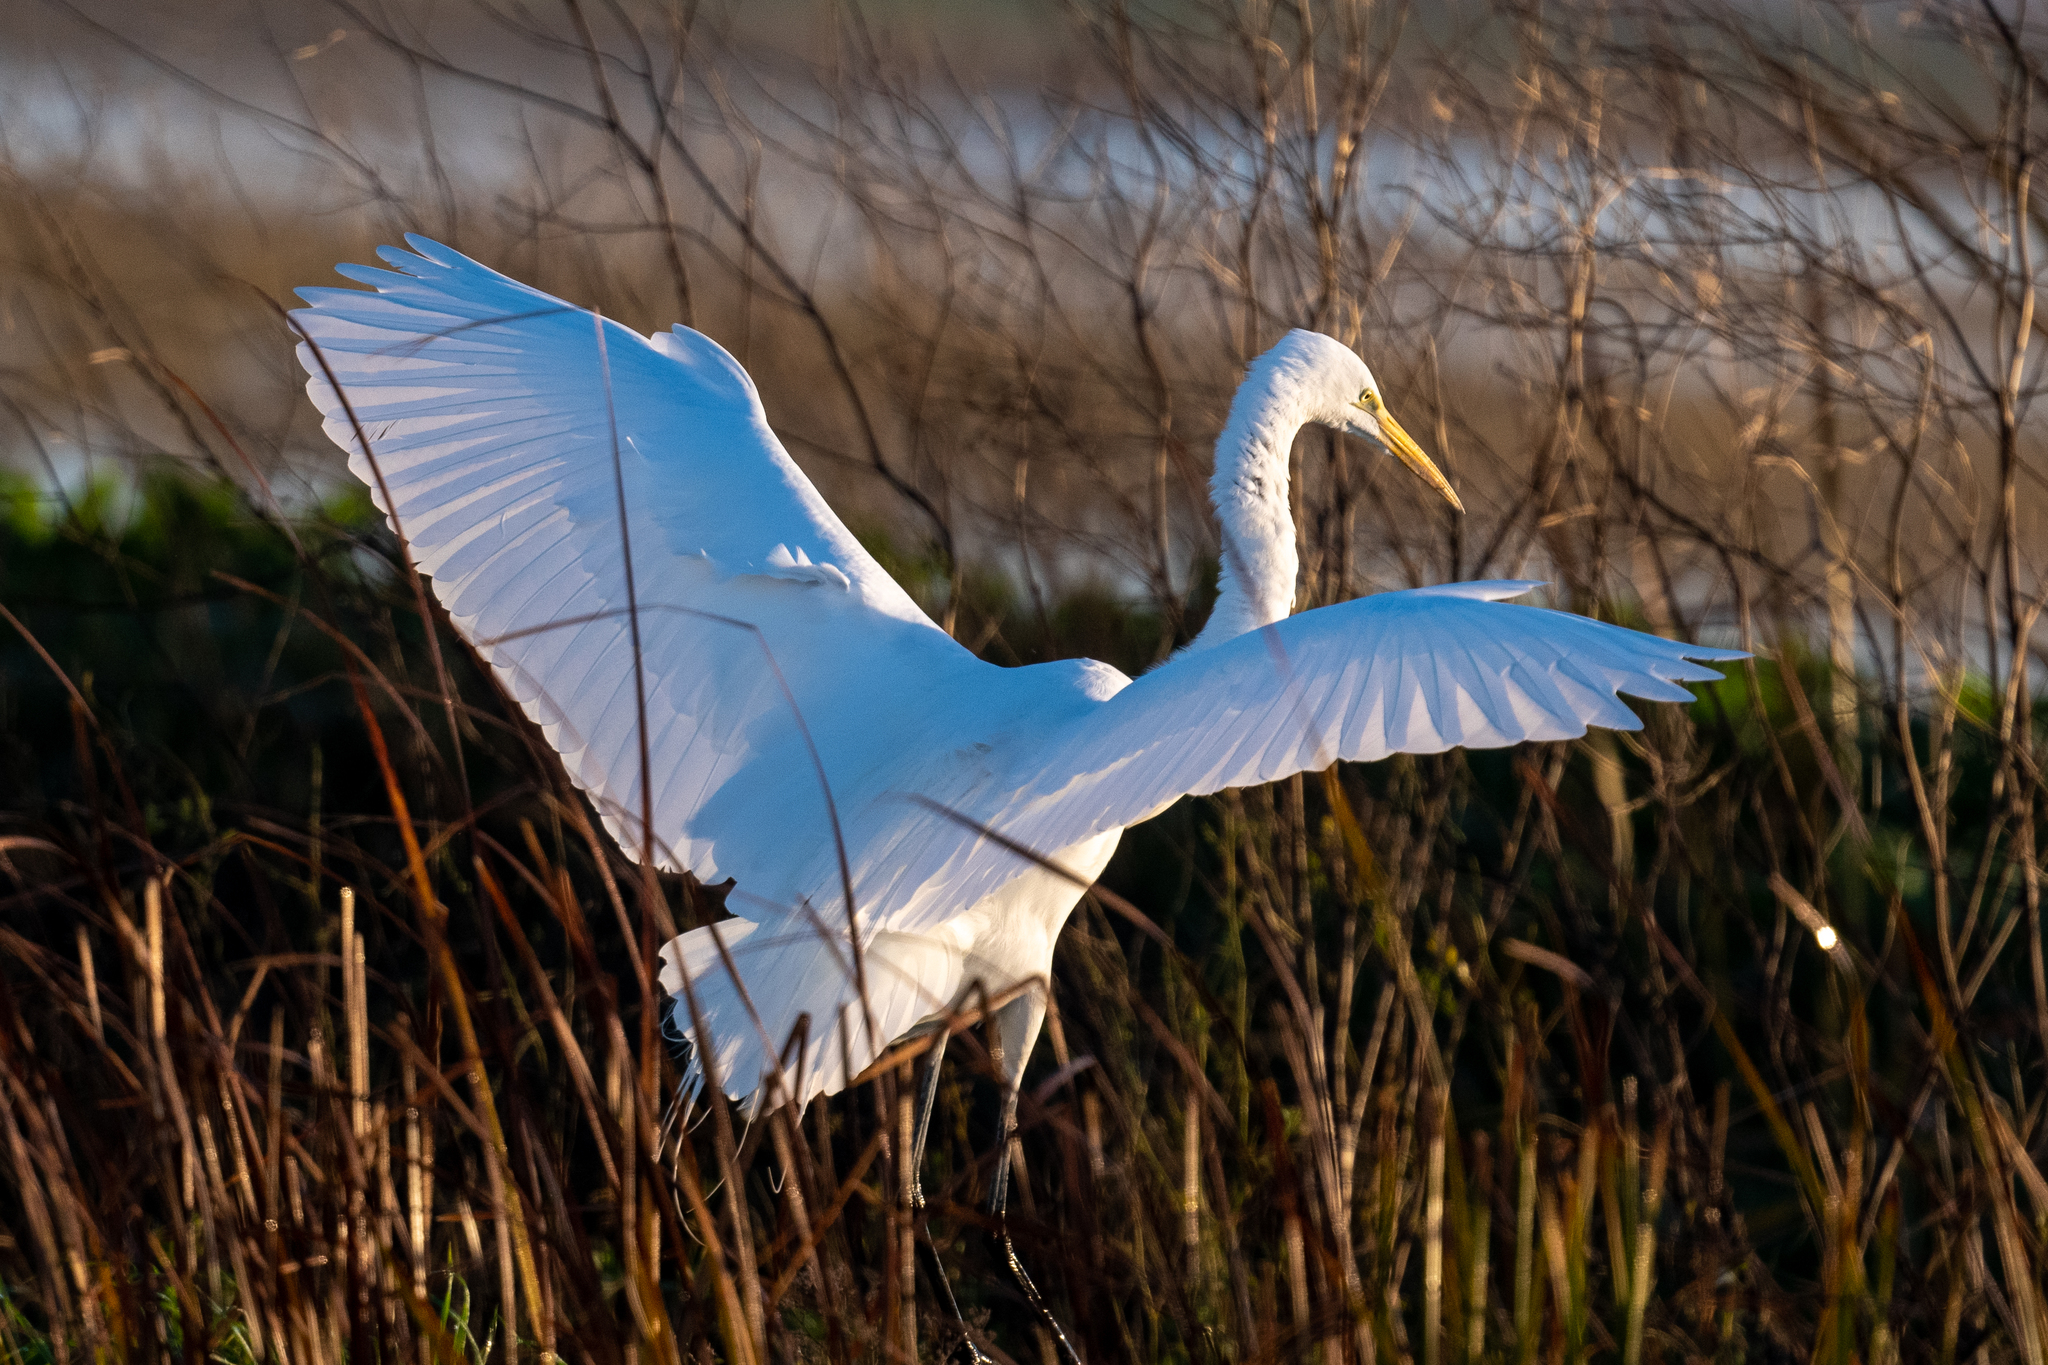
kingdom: Animalia
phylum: Chordata
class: Aves
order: Pelecaniformes
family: Ardeidae
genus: Ardea
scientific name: Ardea alba
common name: Great egret
